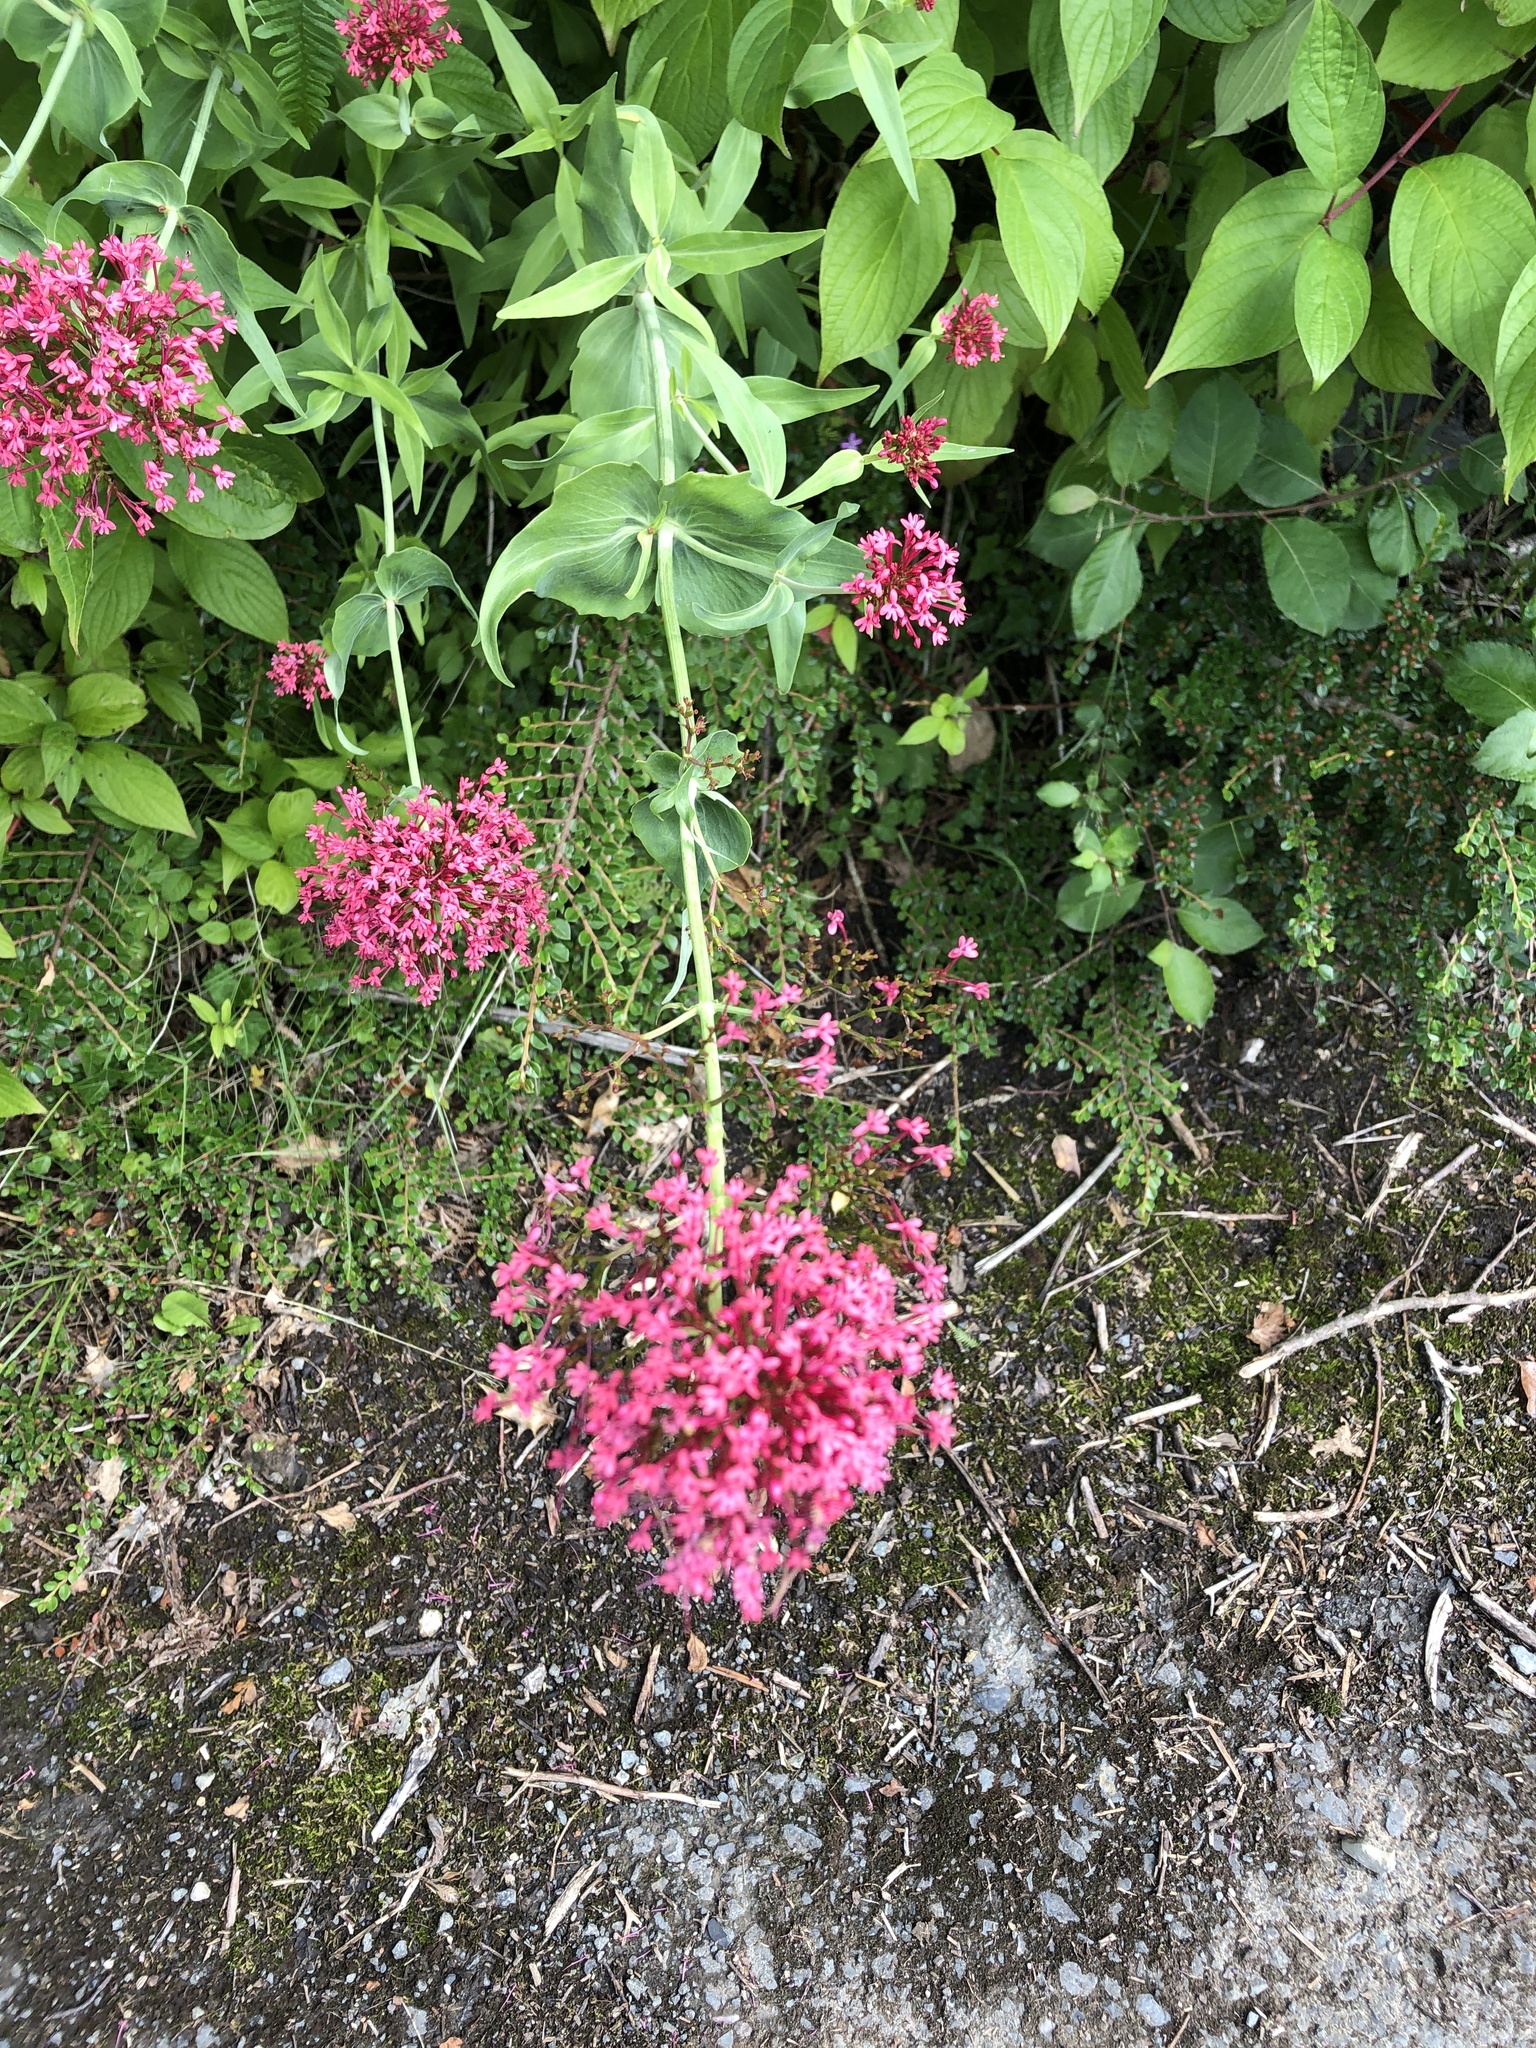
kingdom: Plantae
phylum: Tracheophyta
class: Magnoliopsida
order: Dipsacales
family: Caprifoliaceae
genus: Centranthus
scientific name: Centranthus ruber
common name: Red valerian
